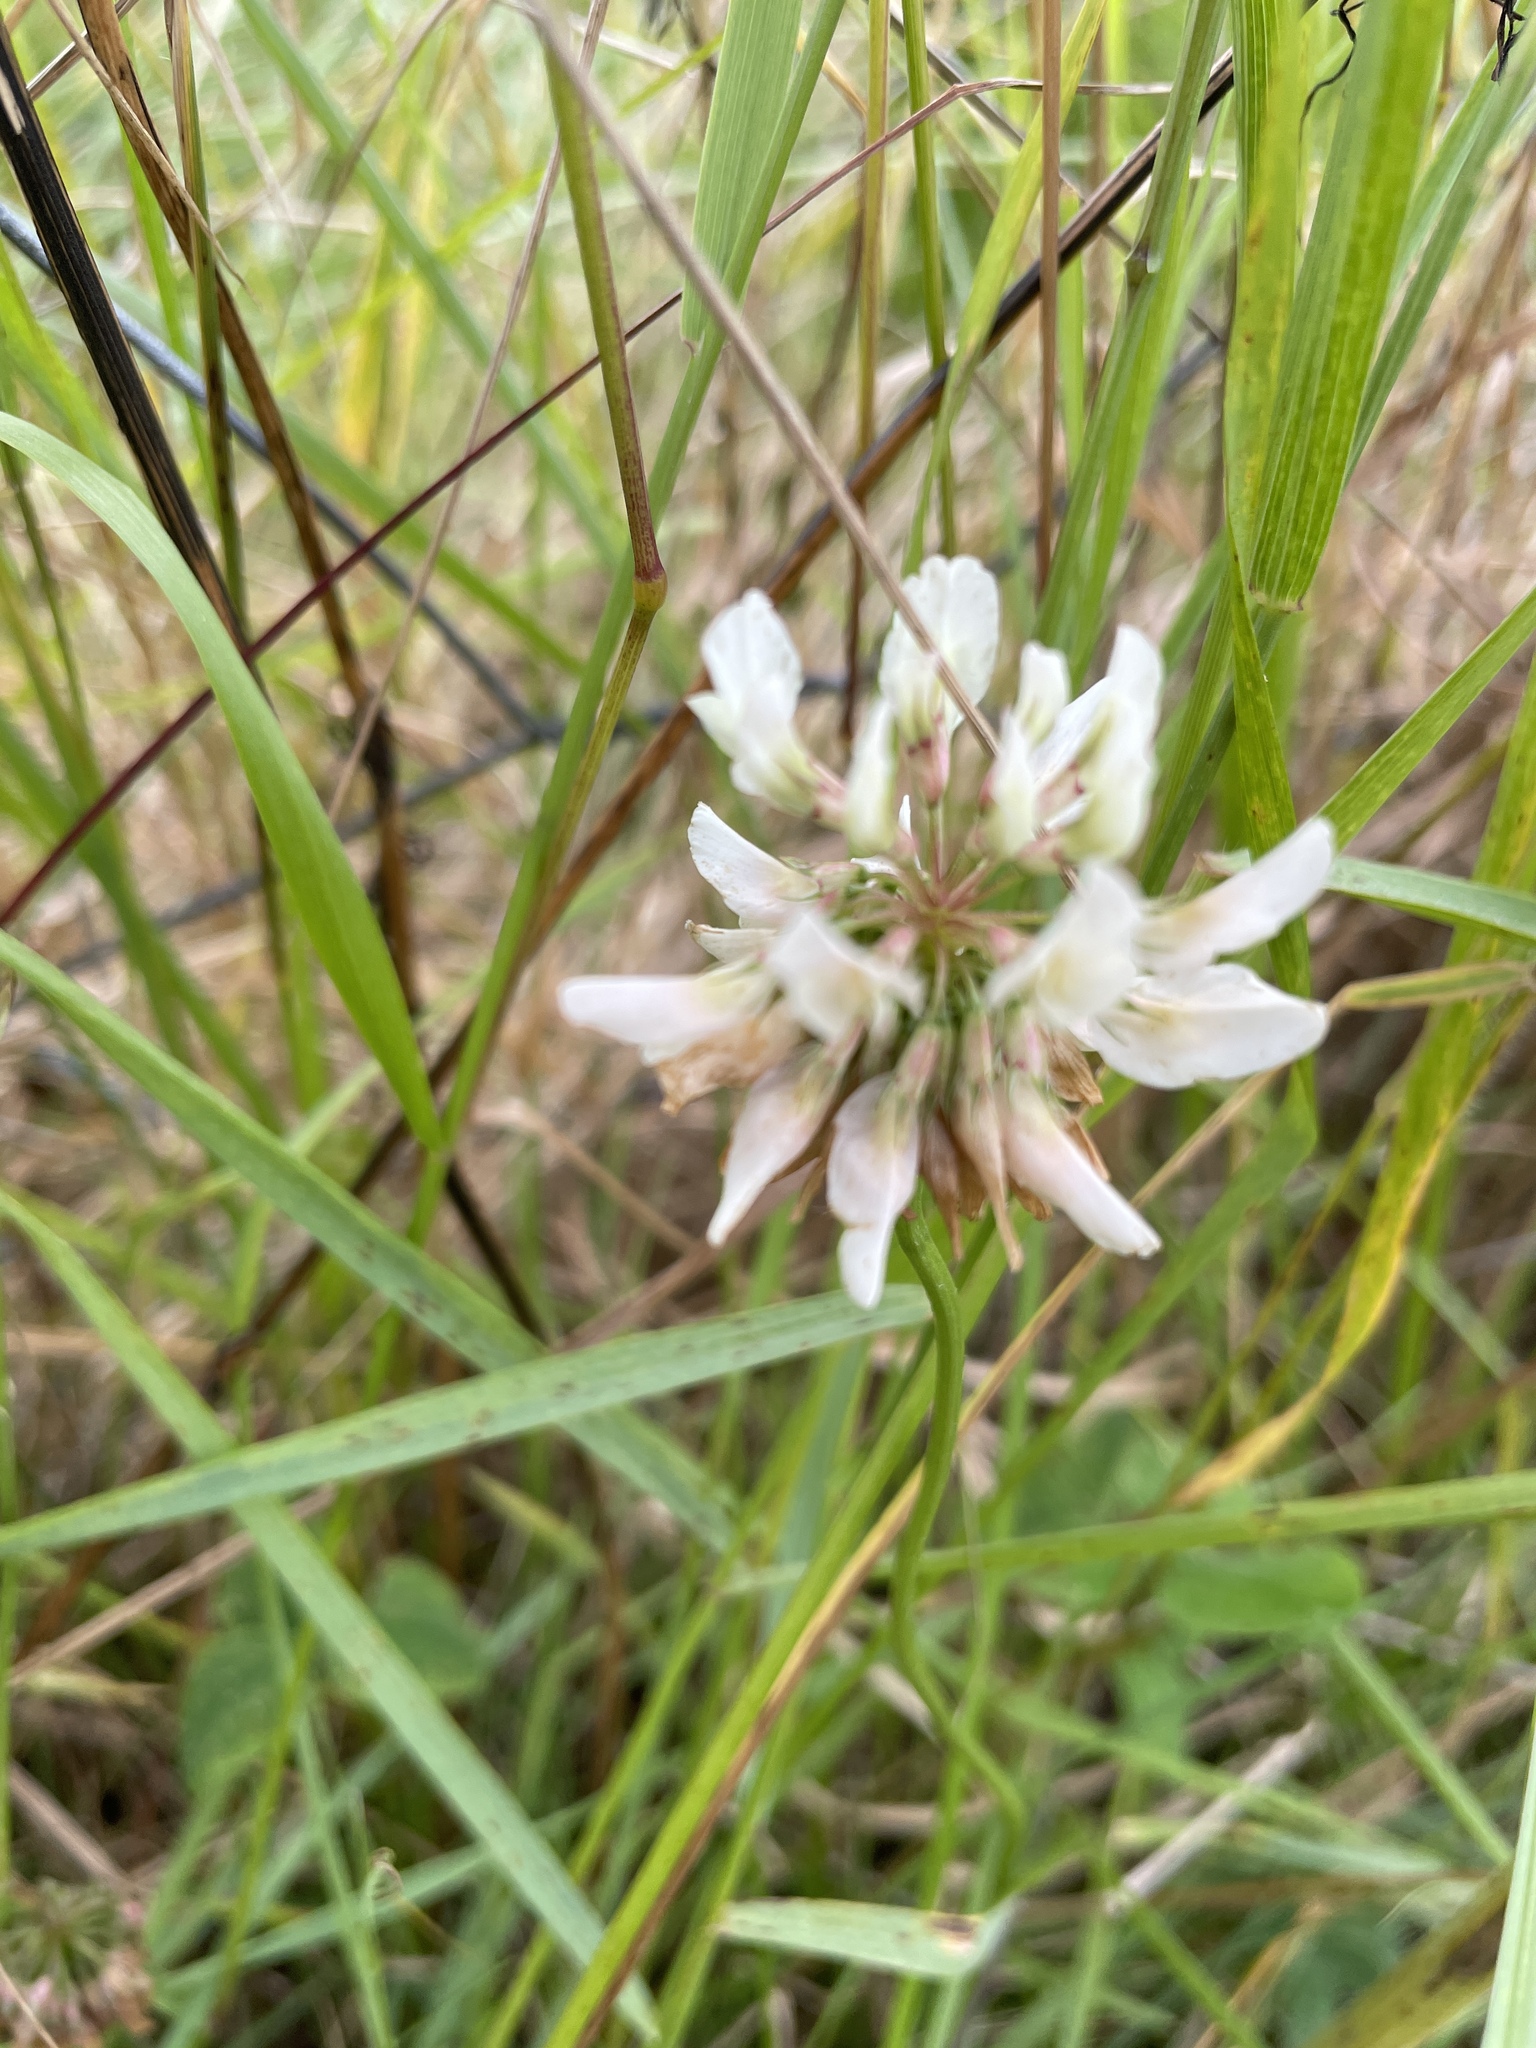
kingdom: Plantae
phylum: Tracheophyta
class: Magnoliopsida
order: Fabales
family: Fabaceae
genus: Trifolium
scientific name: Trifolium repens
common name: White clover
